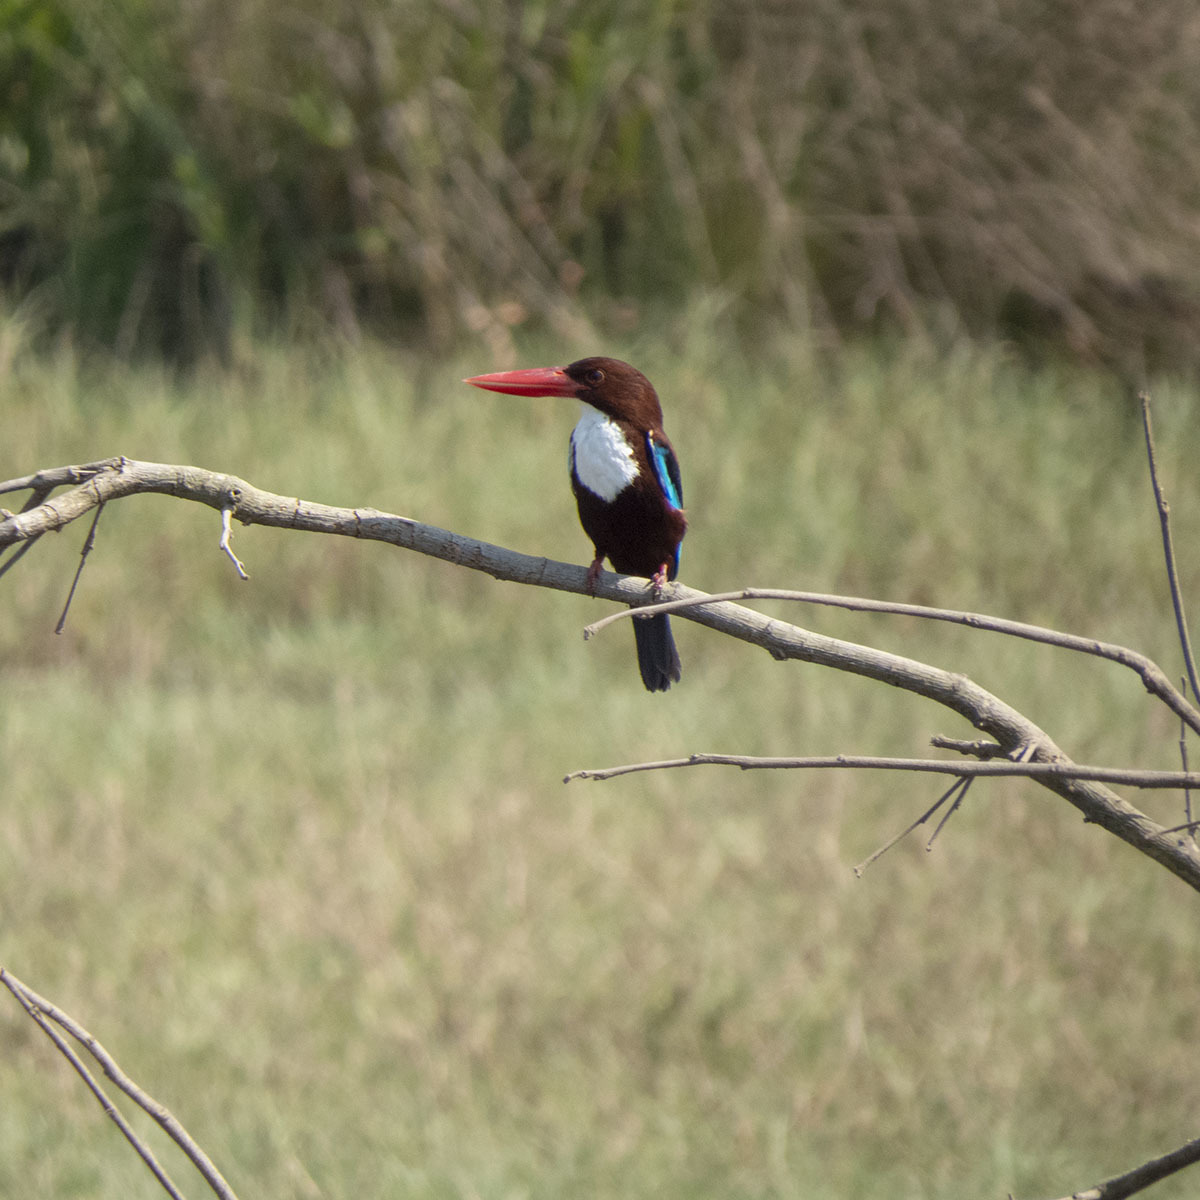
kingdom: Animalia
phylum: Chordata
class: Aves
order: Coraciiformes
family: Alcedinidae
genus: Halcyon
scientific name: Halcyon smyrnensis
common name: White-throated kingfisher
